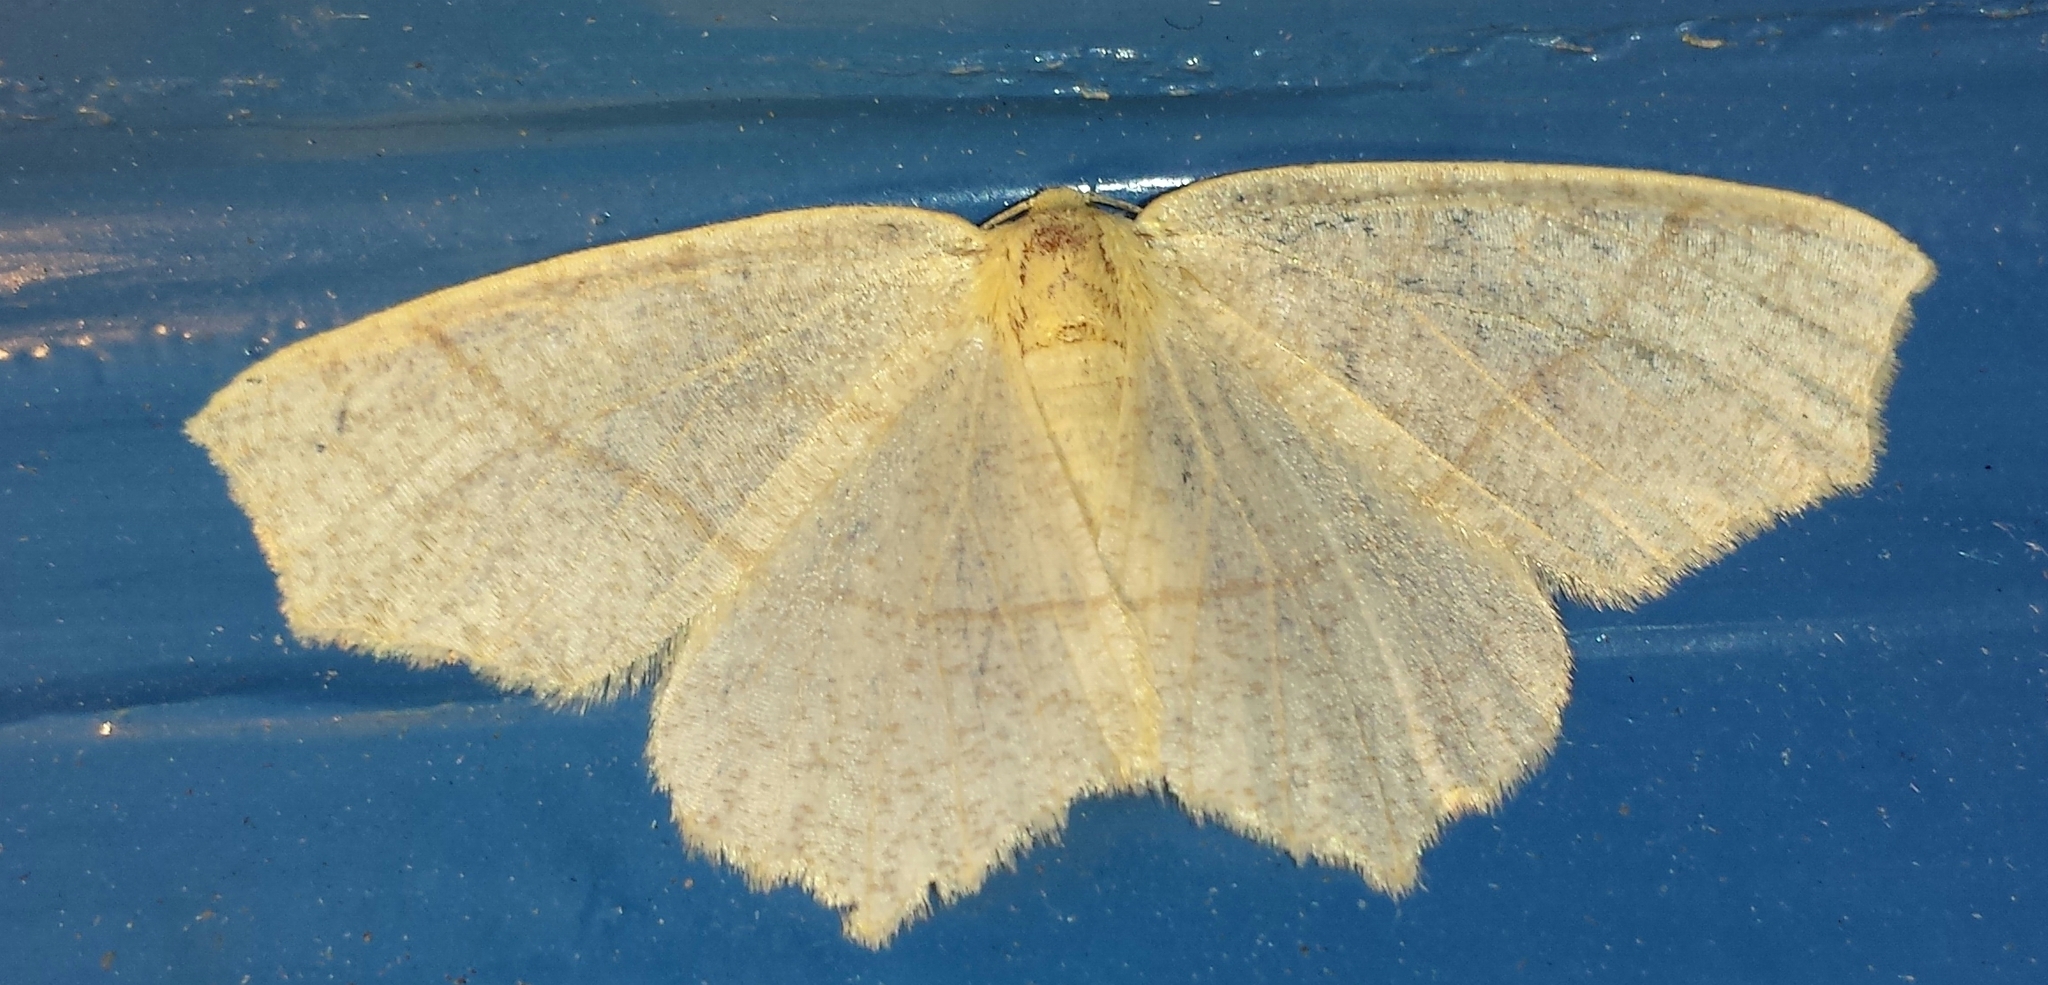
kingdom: Animalia
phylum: Arthropoda
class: Insecta
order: Lepidoptera
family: Geometridae
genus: Besma
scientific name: Besma endropiaria
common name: Straw besma
